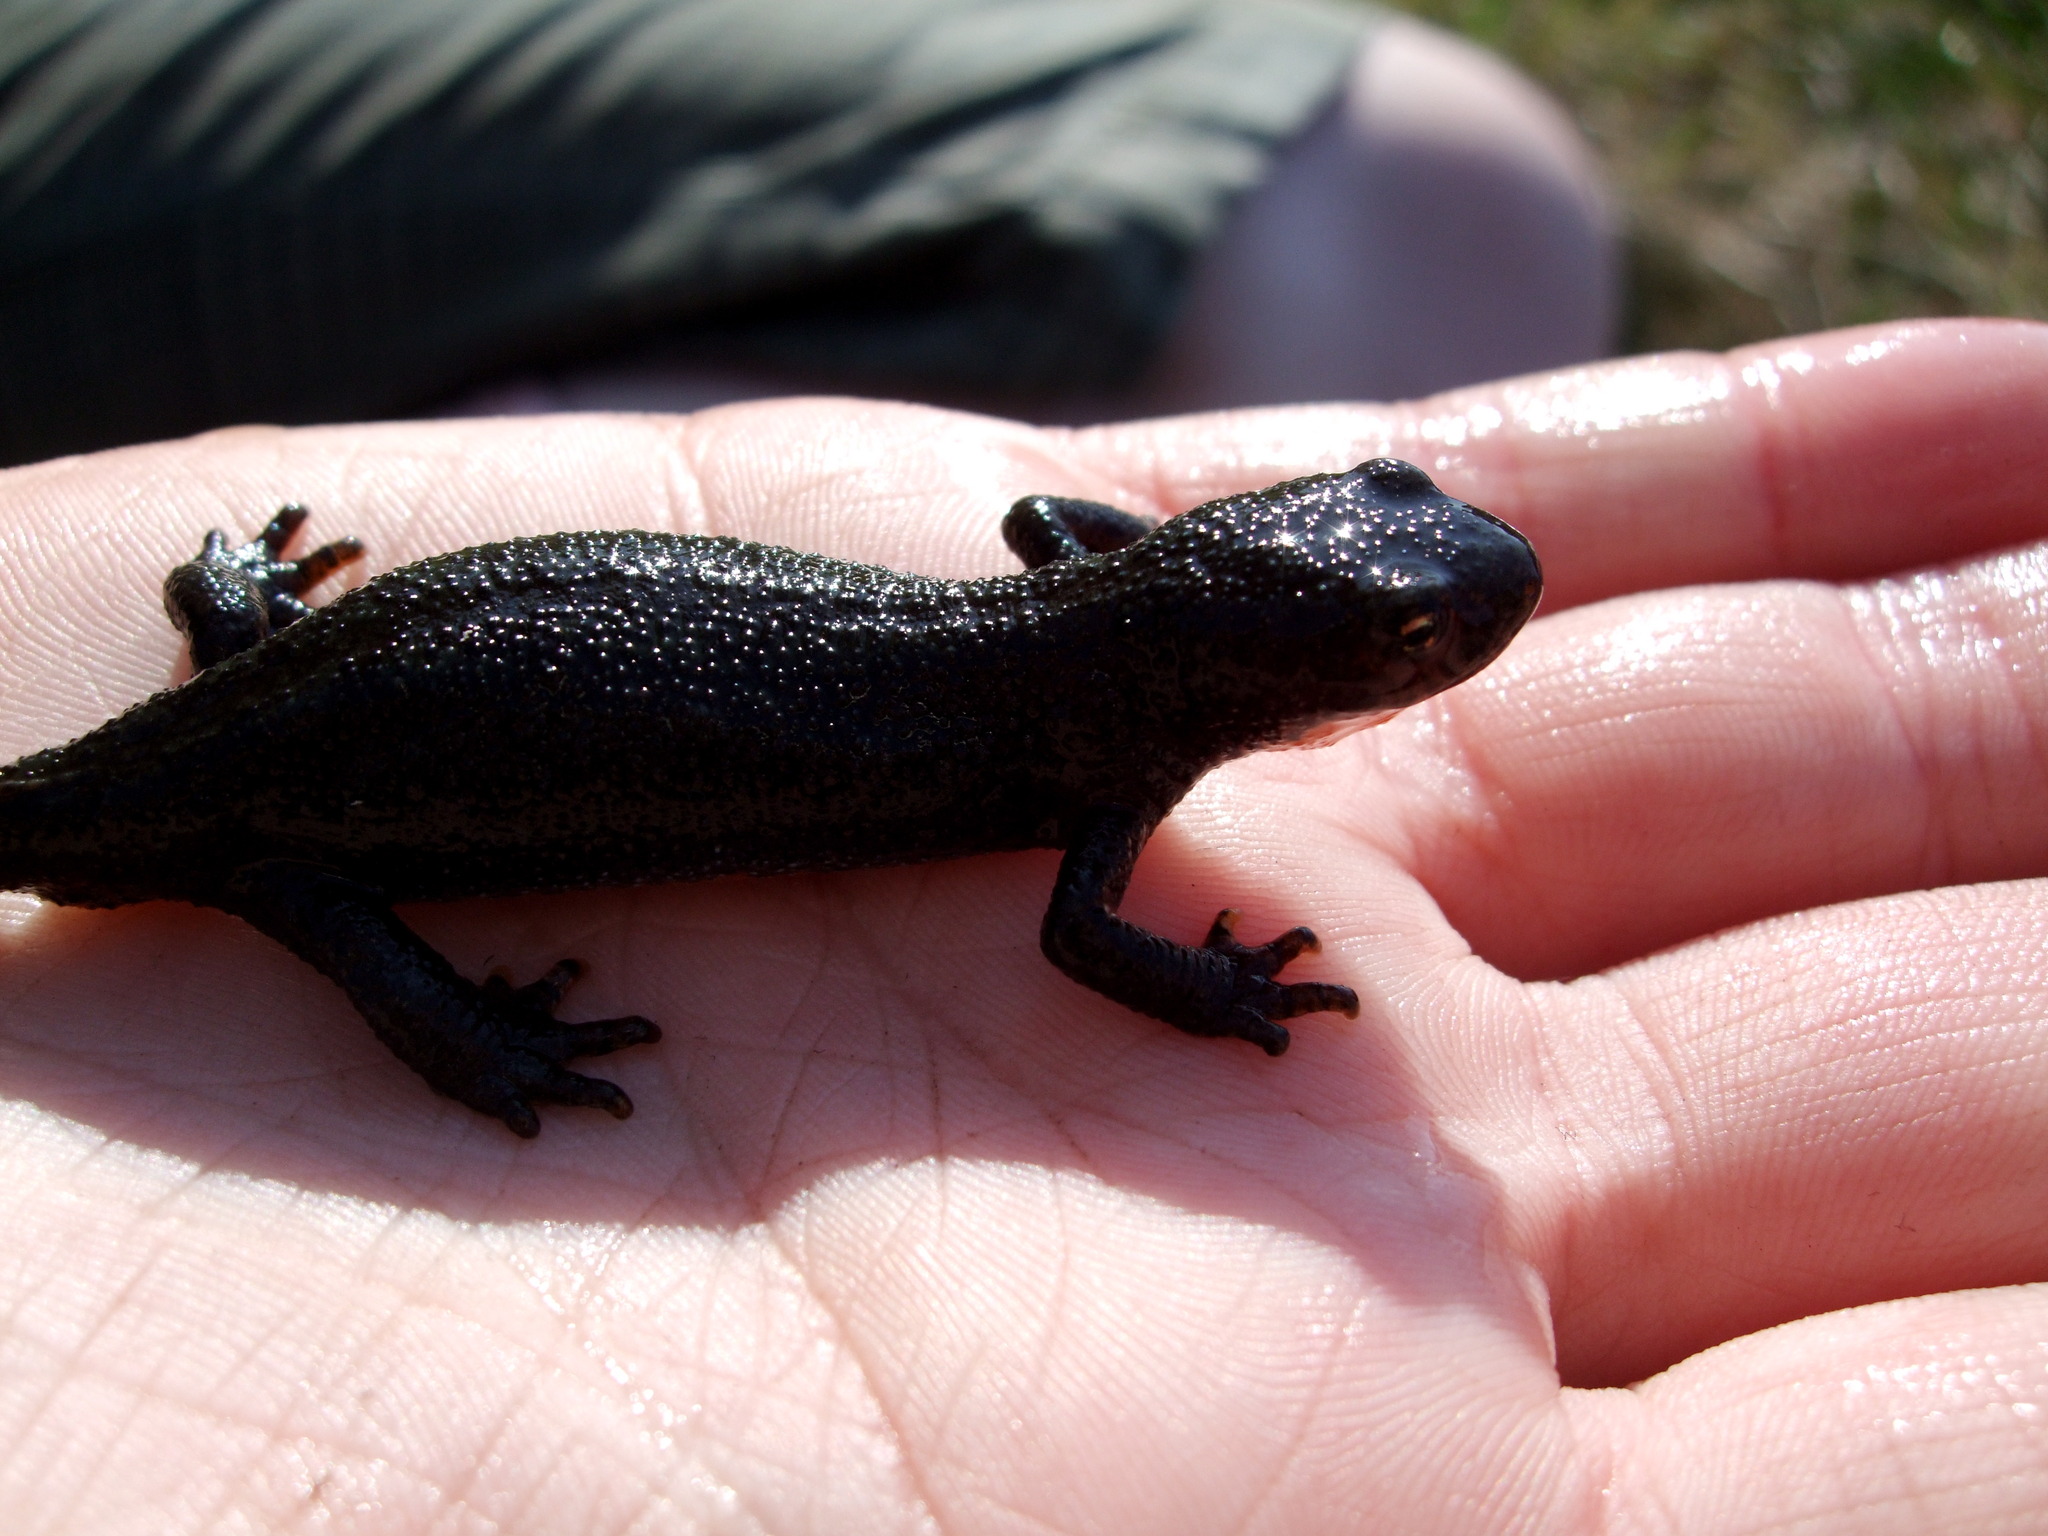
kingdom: Animalia
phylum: Chordata
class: Amphibia
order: Caudata
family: Salamandridae
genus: Ichthyosaura
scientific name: Ichthyosaura alpestris
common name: Alpine newt
